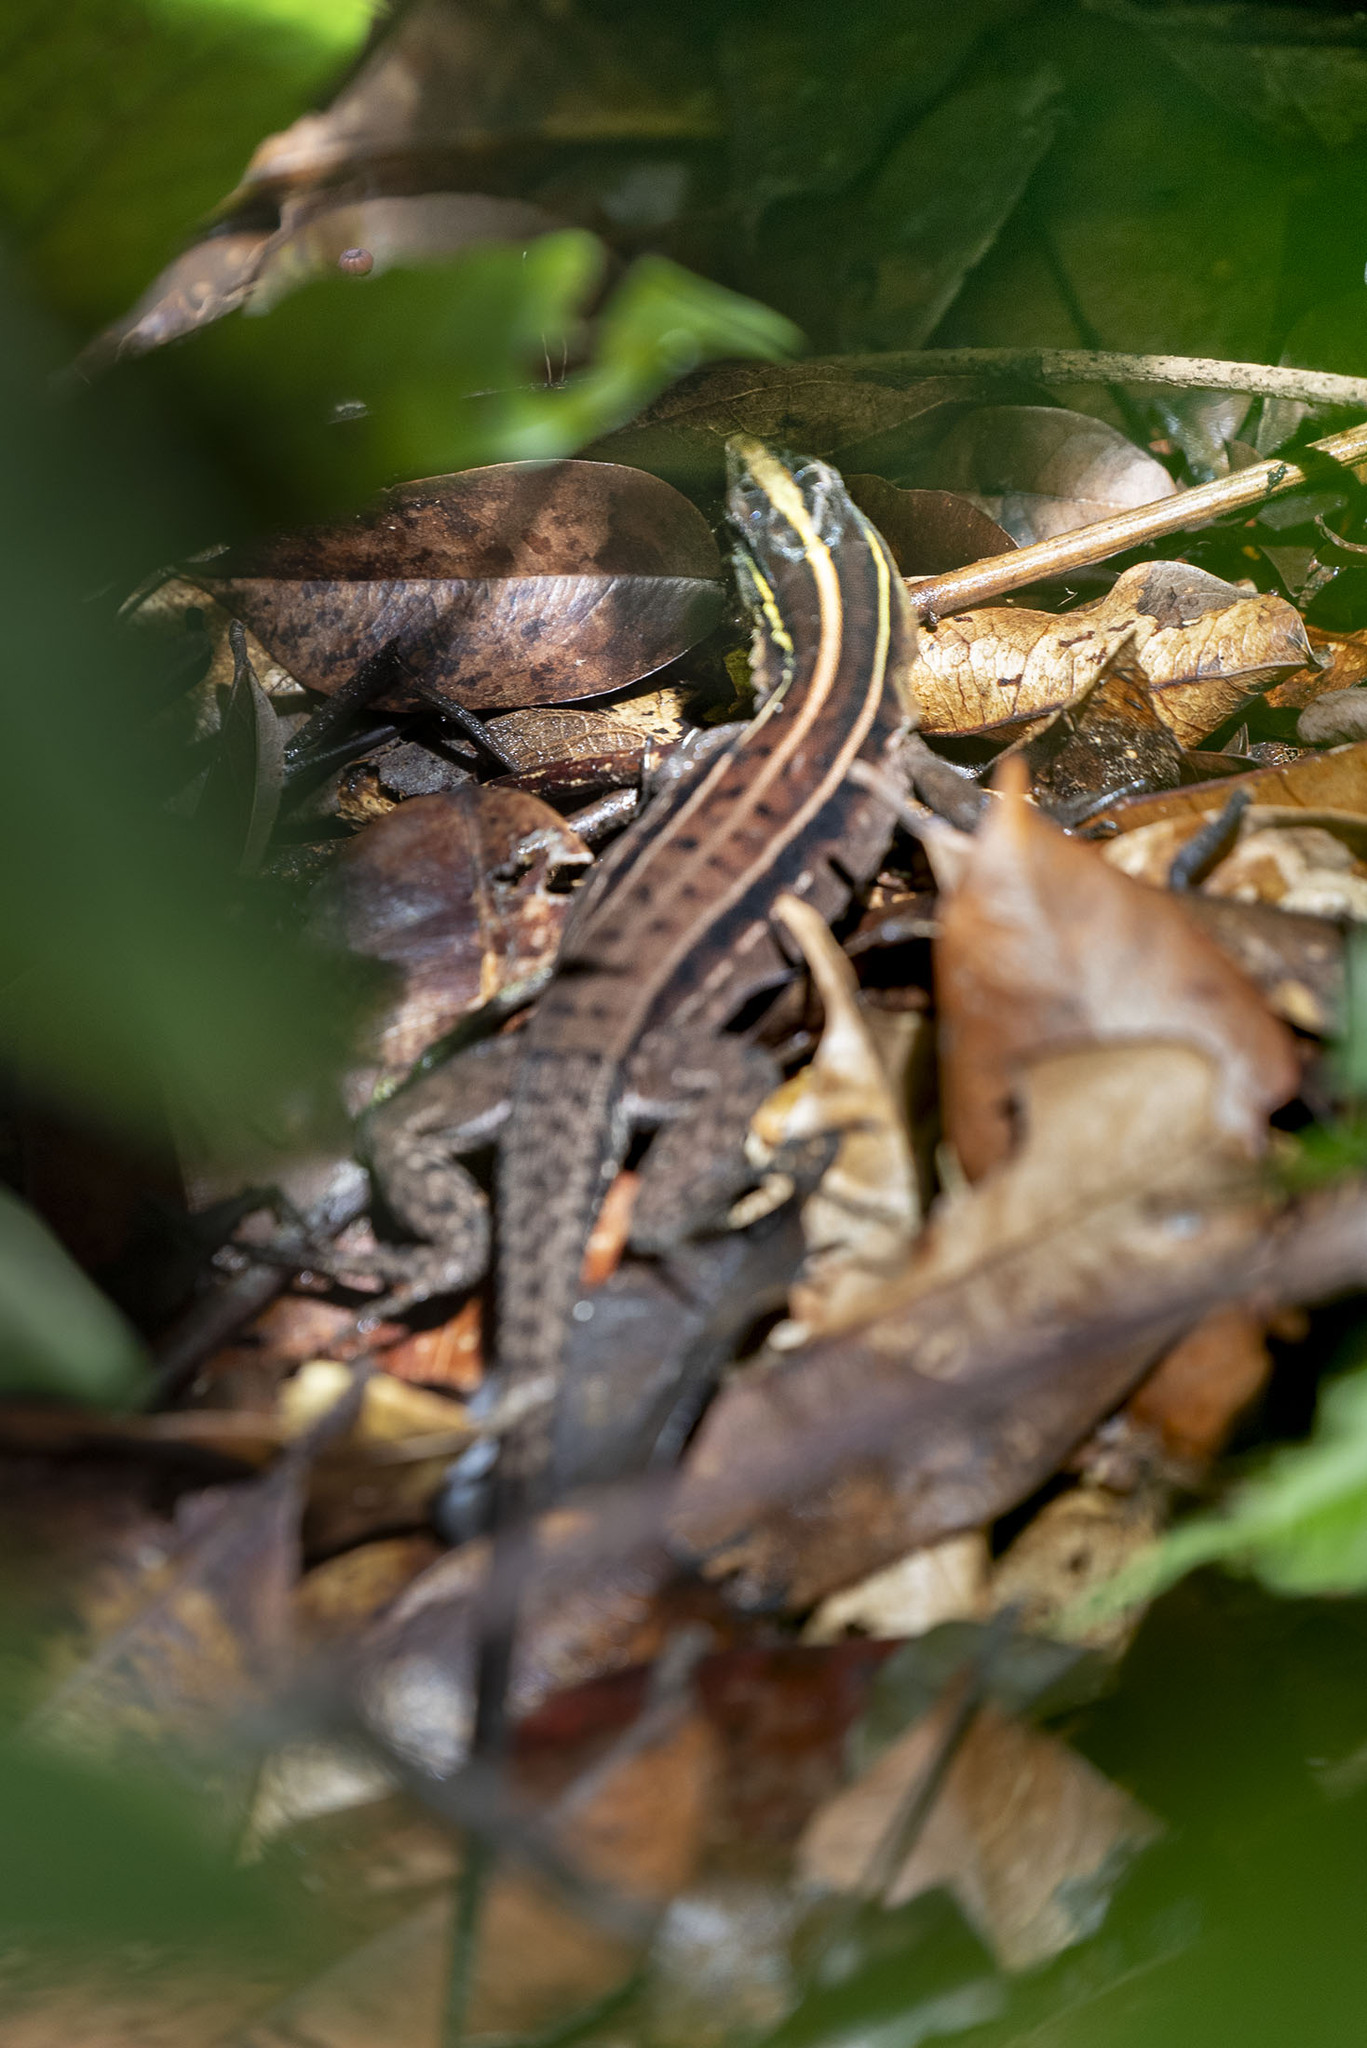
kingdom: Animalia
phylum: Chordata
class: Squamata
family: Teiidae
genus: Kentropyx
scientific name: Kentropyx calcarata
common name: Striped forest whiptail
